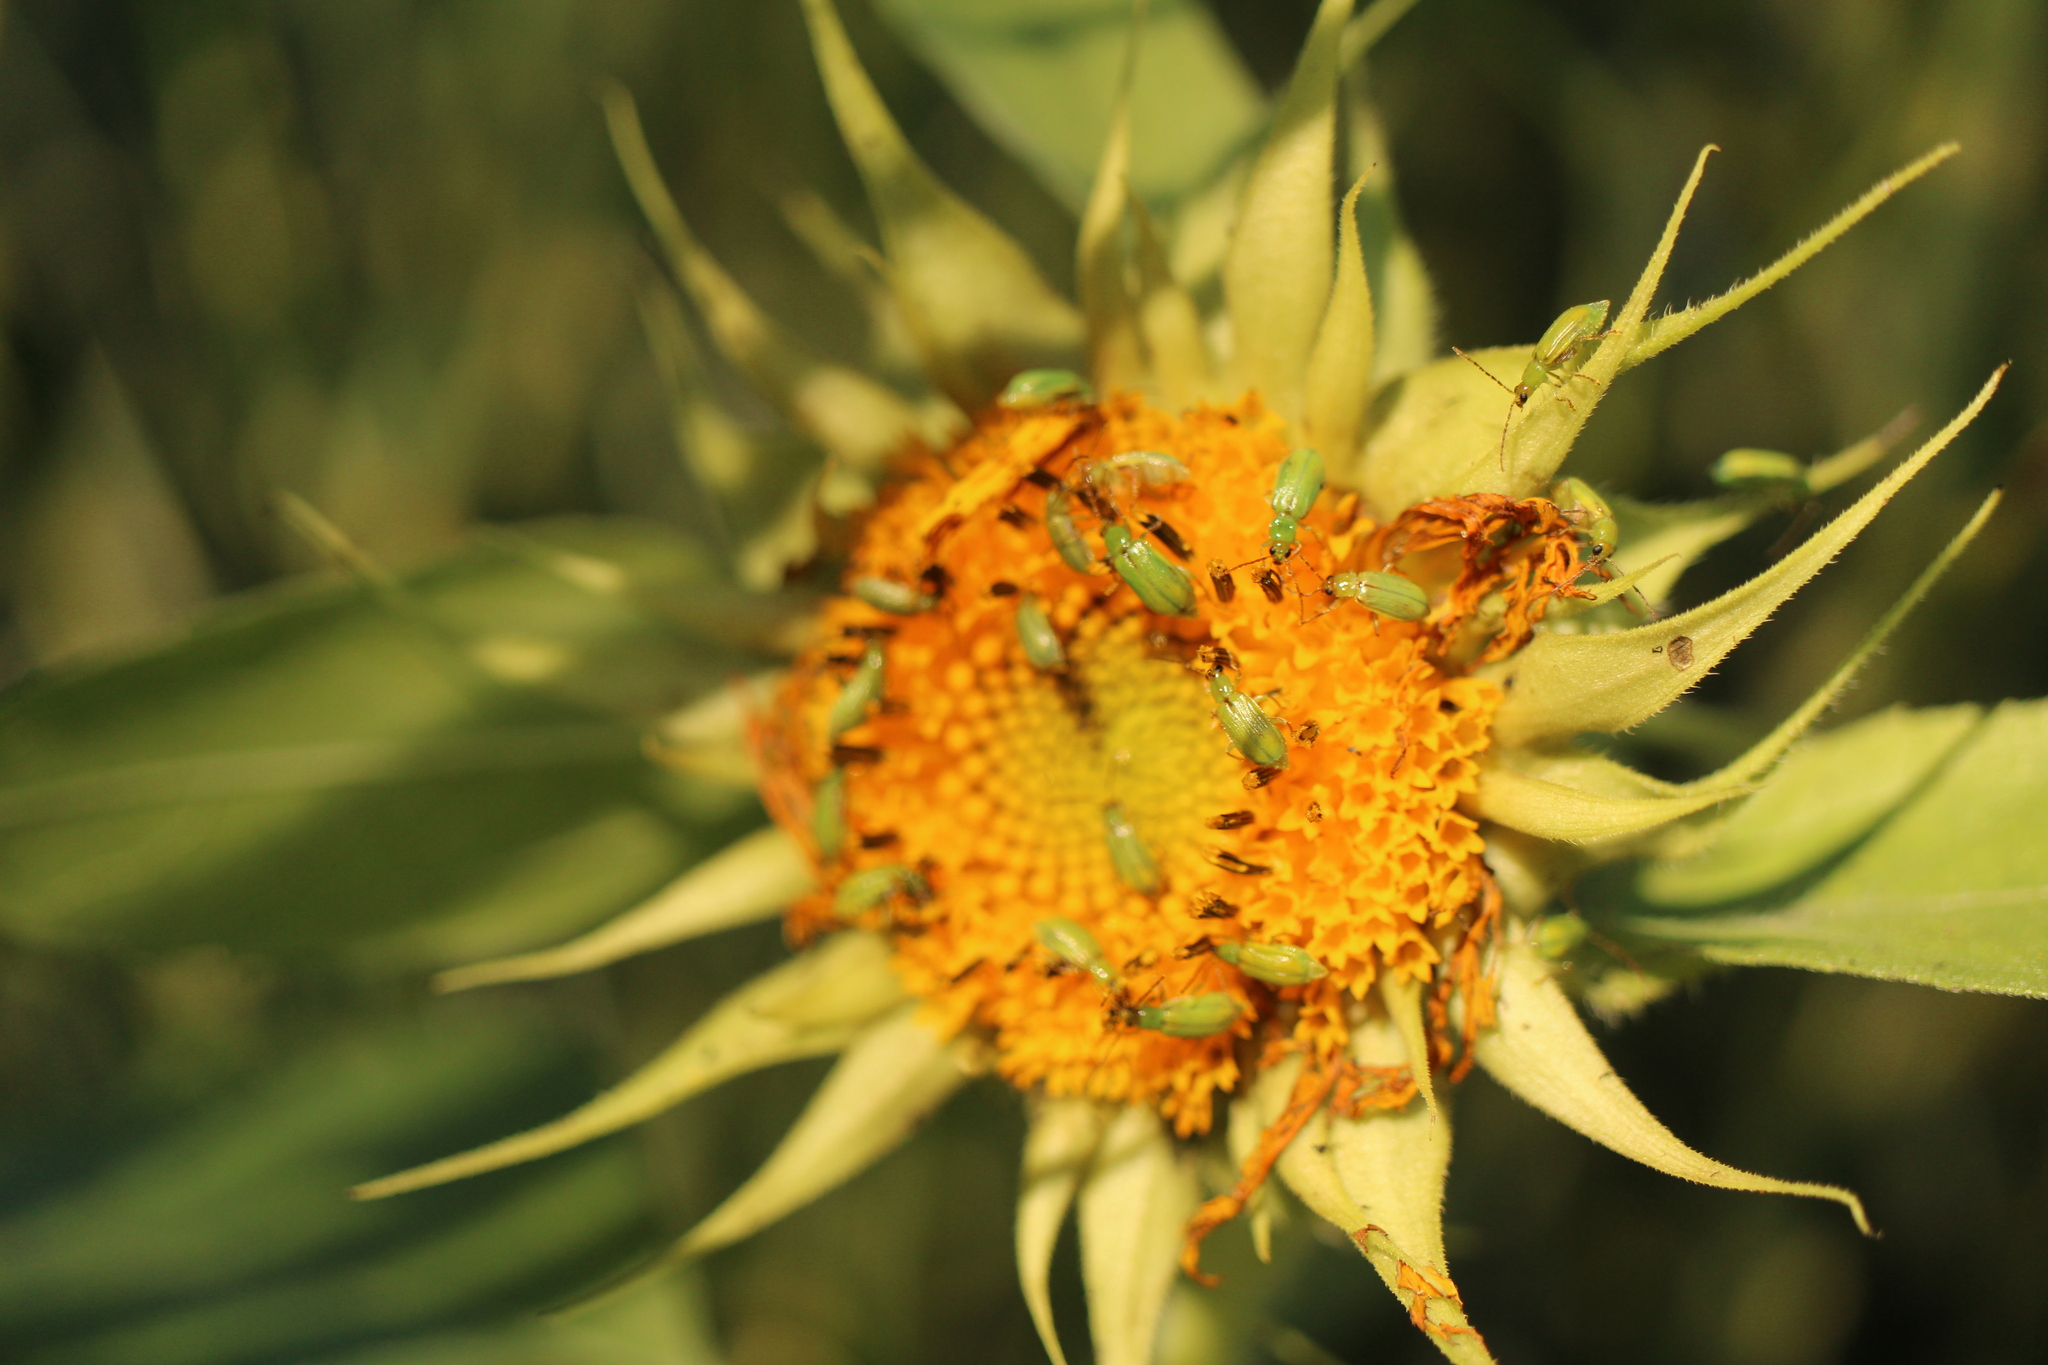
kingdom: Animalia
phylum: Arthropoda
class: Insecta
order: Coleoptera
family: Chrysomelidae
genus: Diabrotica
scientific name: Diabrotica barberi
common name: Northern corn rootworm
